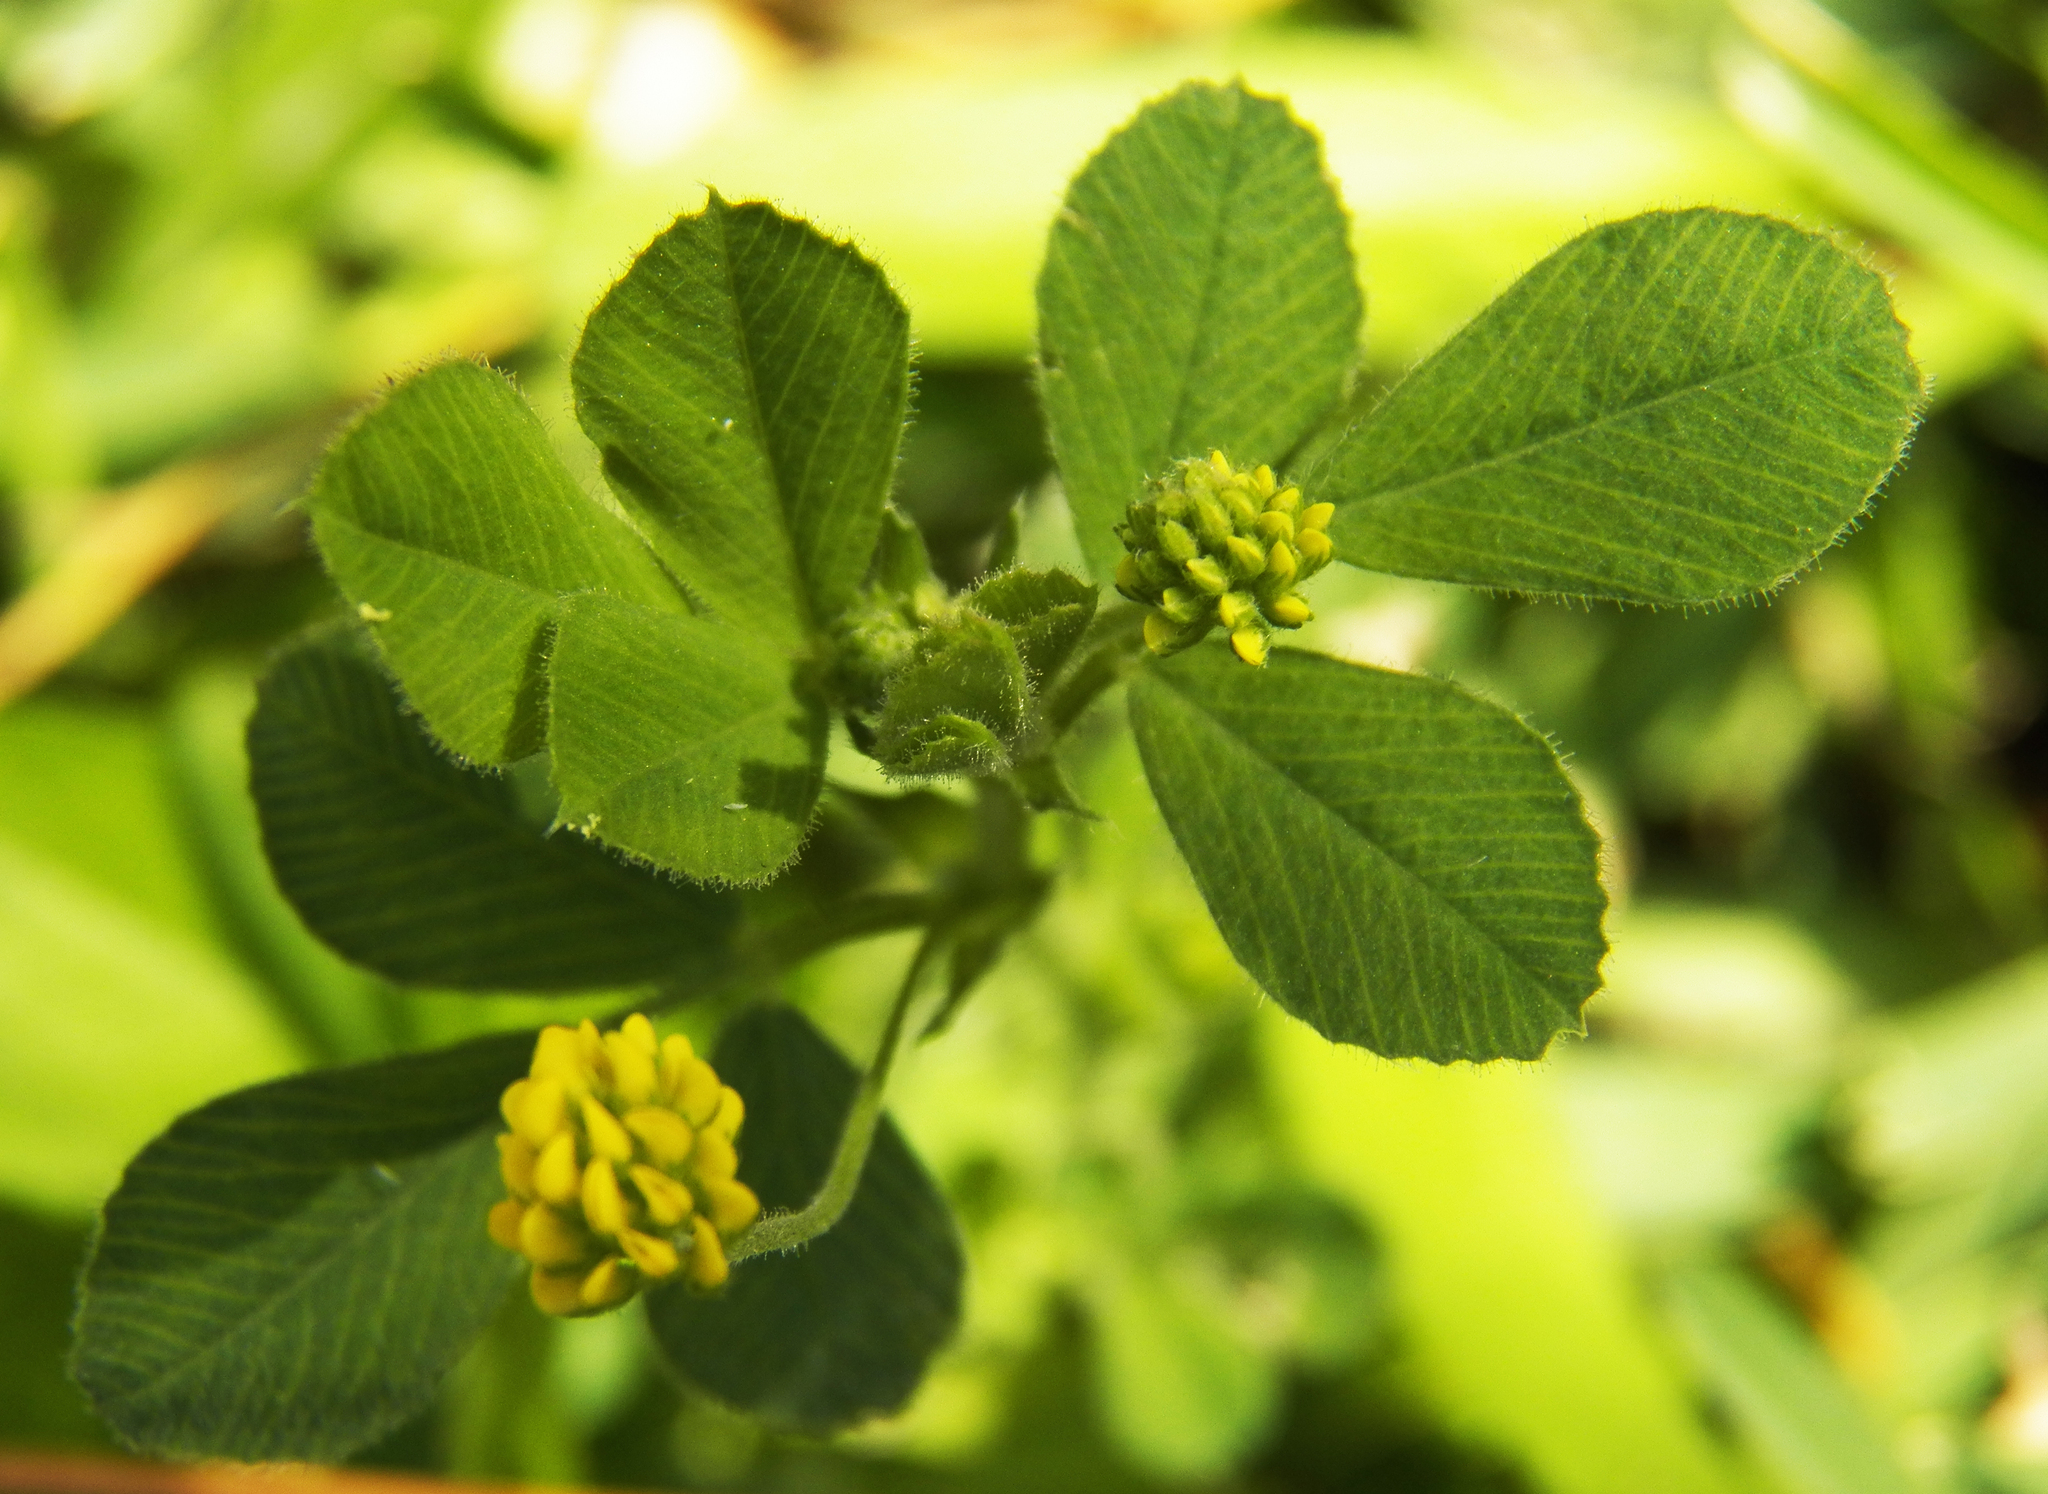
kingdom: Plantae
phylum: Tracheophyta
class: Magnoliopsida
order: Fabales
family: Fabaceae
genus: Medicago
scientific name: Medicago lupulina
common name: Black medick
